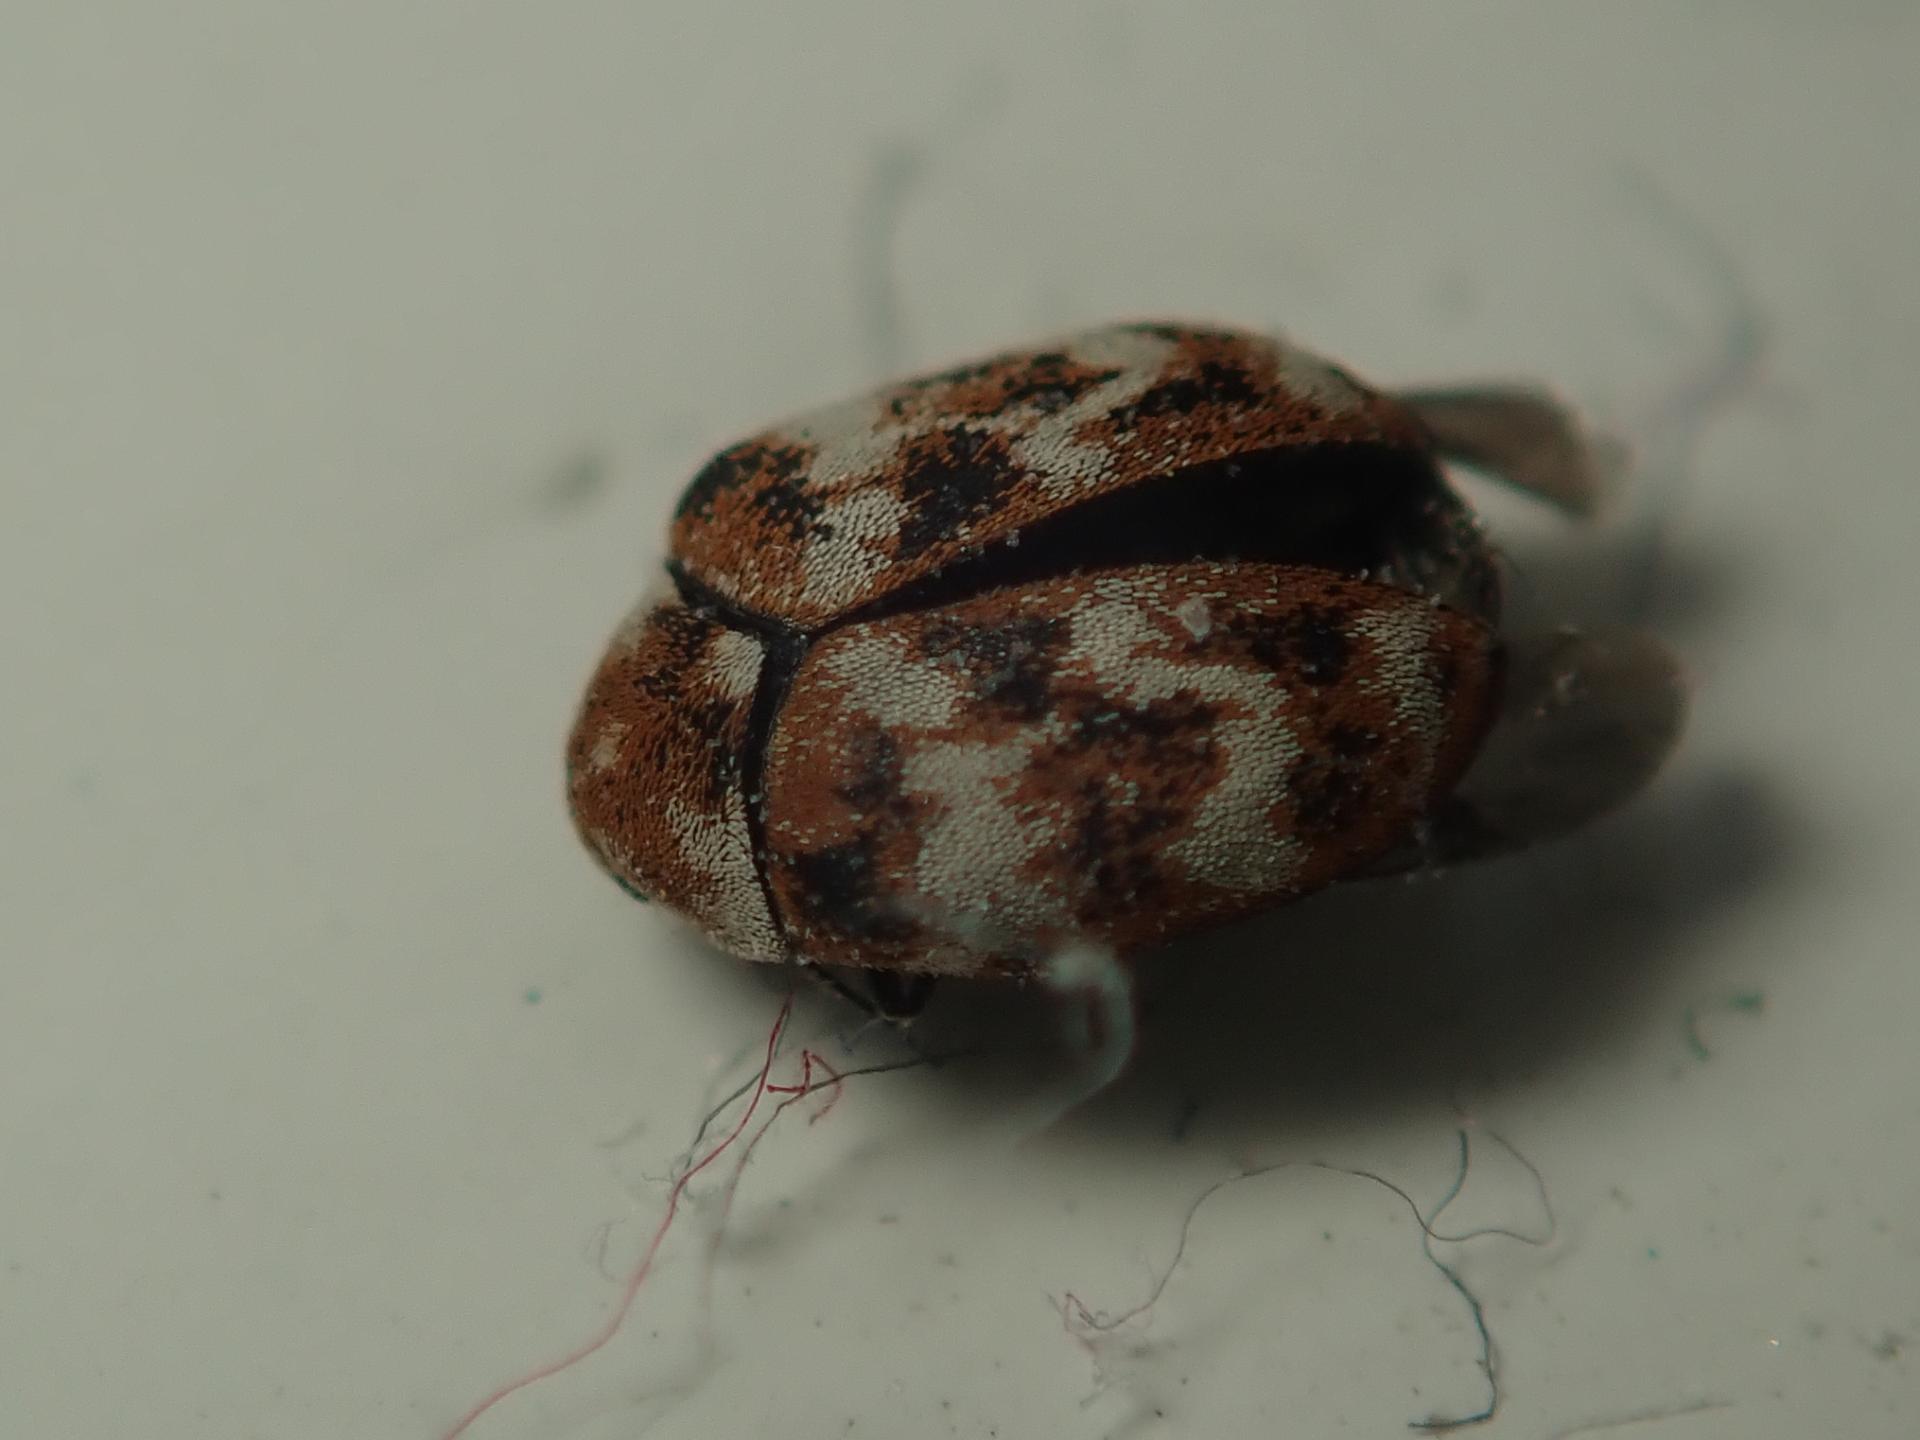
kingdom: Animalia
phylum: Arthropoda
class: Insecta
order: Coleoptera
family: Dermestidae
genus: Anthrenus
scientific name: Anthrenus verbasci
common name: Varied carpet beetle
